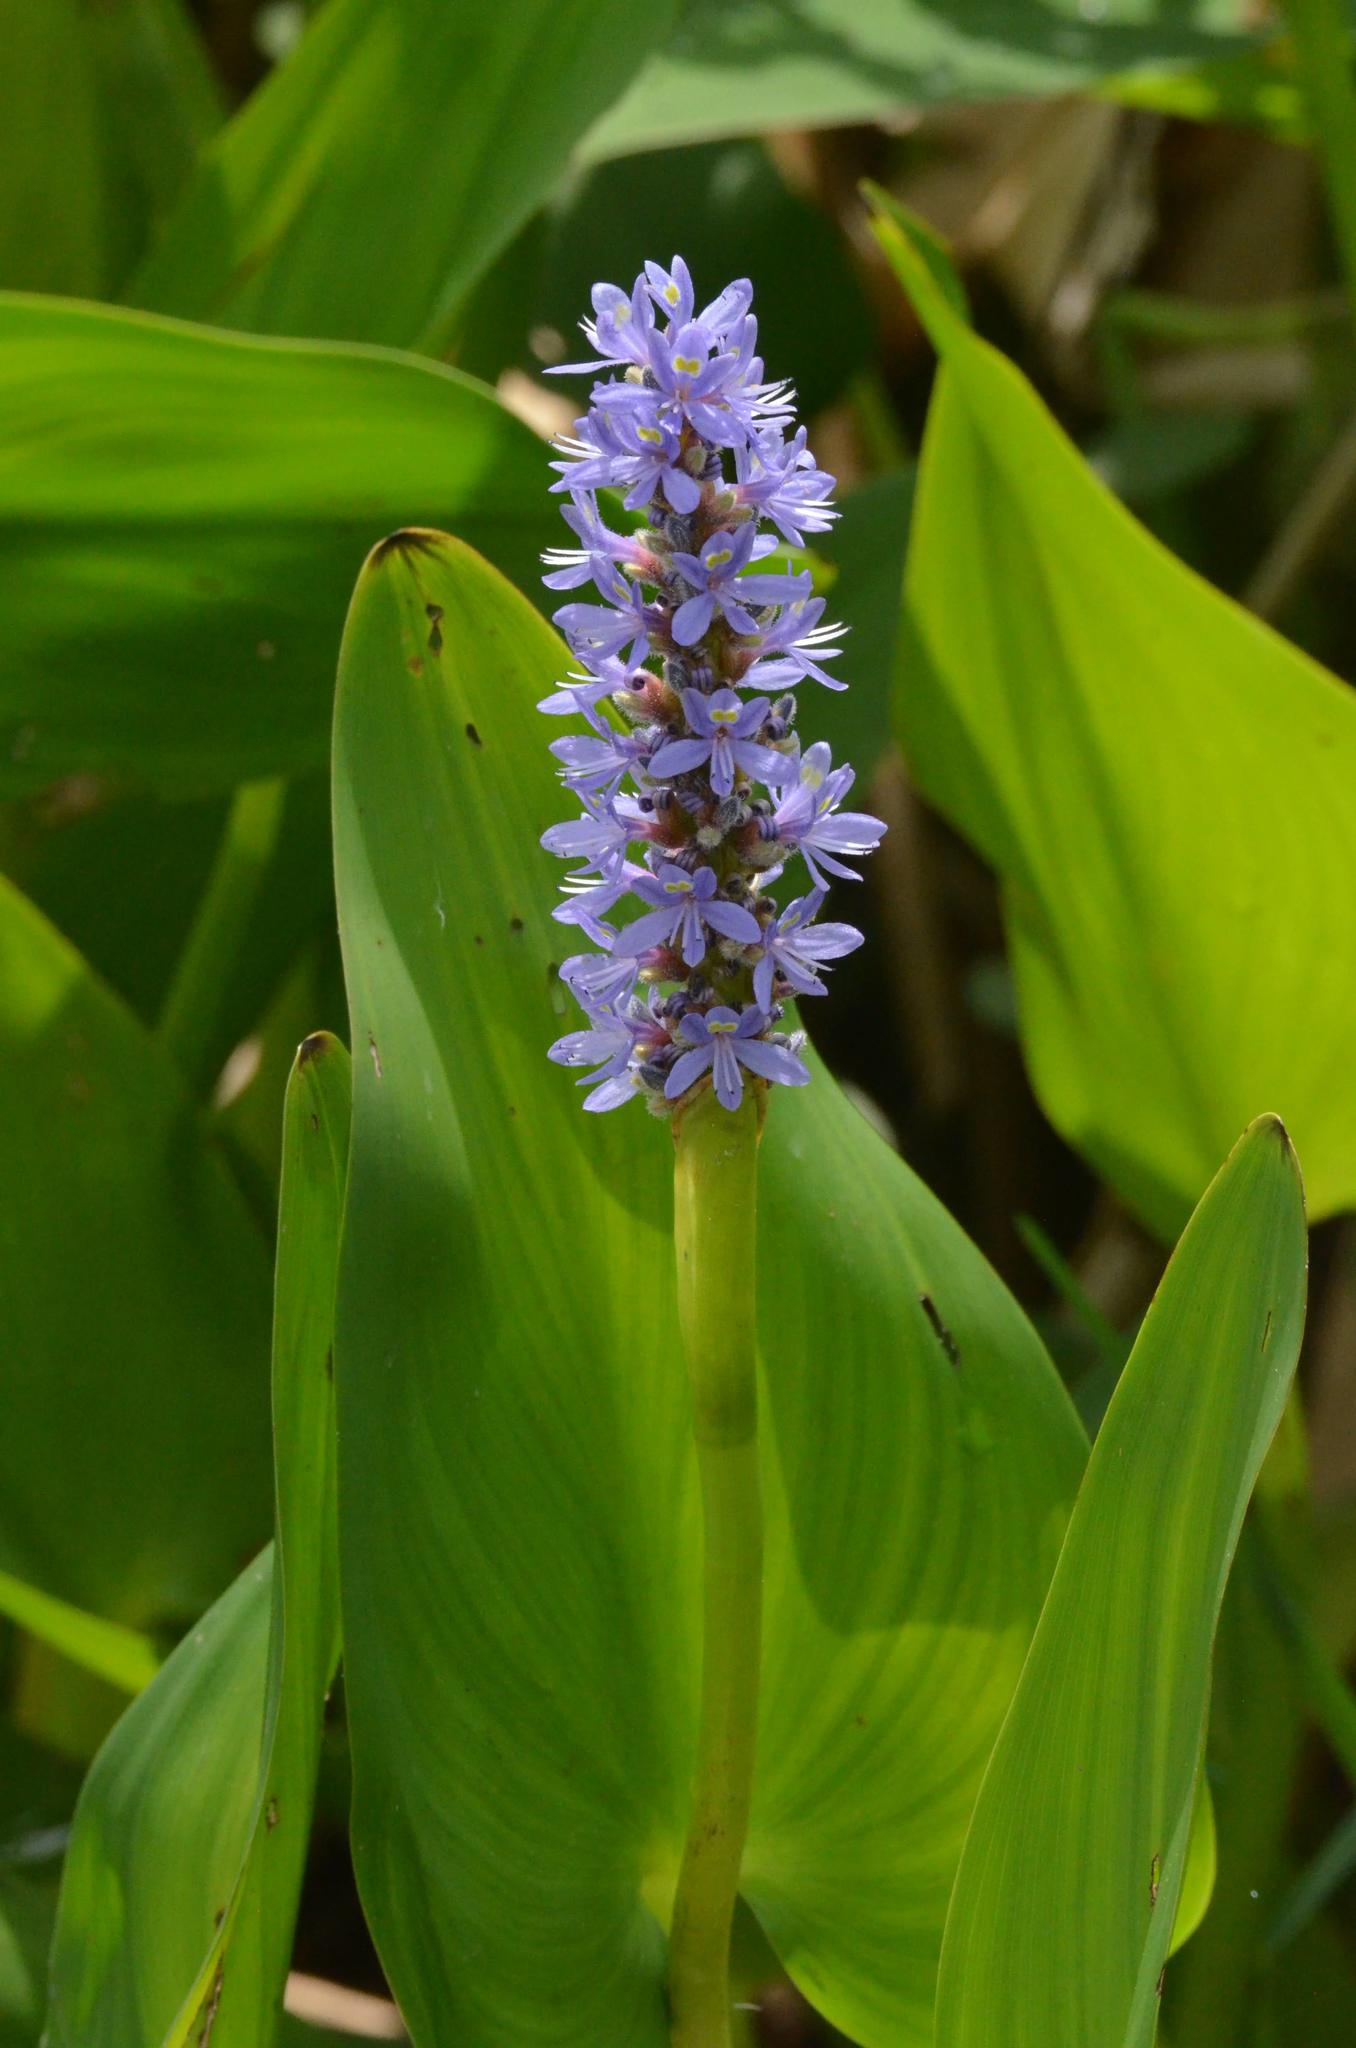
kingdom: Plantae
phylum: Tracheophyta
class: Liliopsida
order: Commelinales
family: Pontederiaceae
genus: Pontederia
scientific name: Pontederia cordata
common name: Pickerelweed
